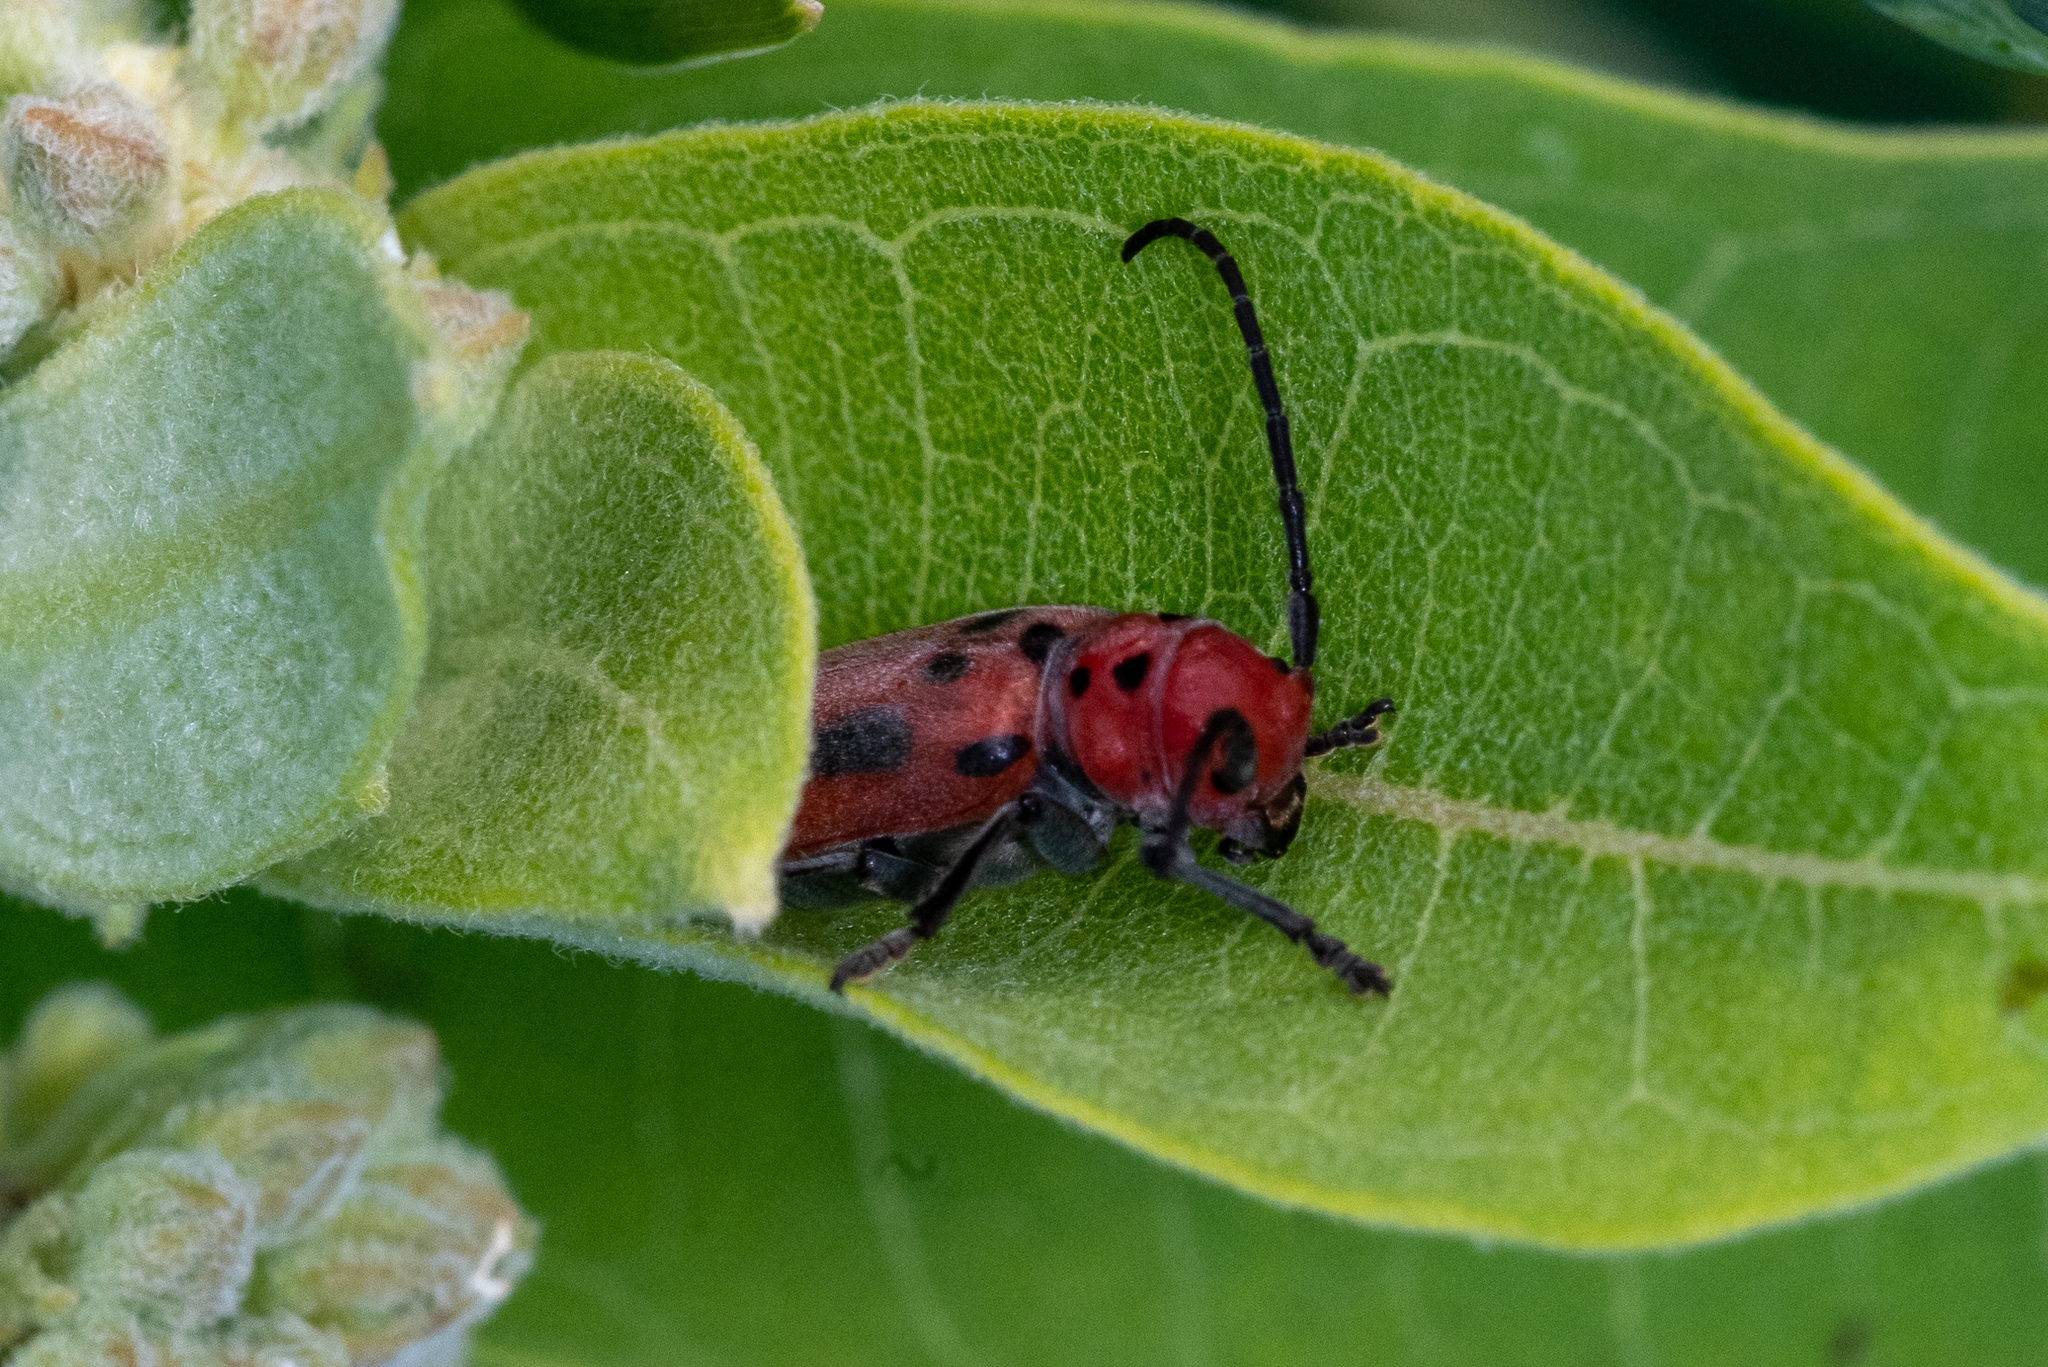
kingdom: Animalia
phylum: Arthropoda
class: Insecta
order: Coleoptera
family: Cerambycidae
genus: Tetraopes
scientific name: Tetraopes tetrophthalmus
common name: Red milkweed beetle
